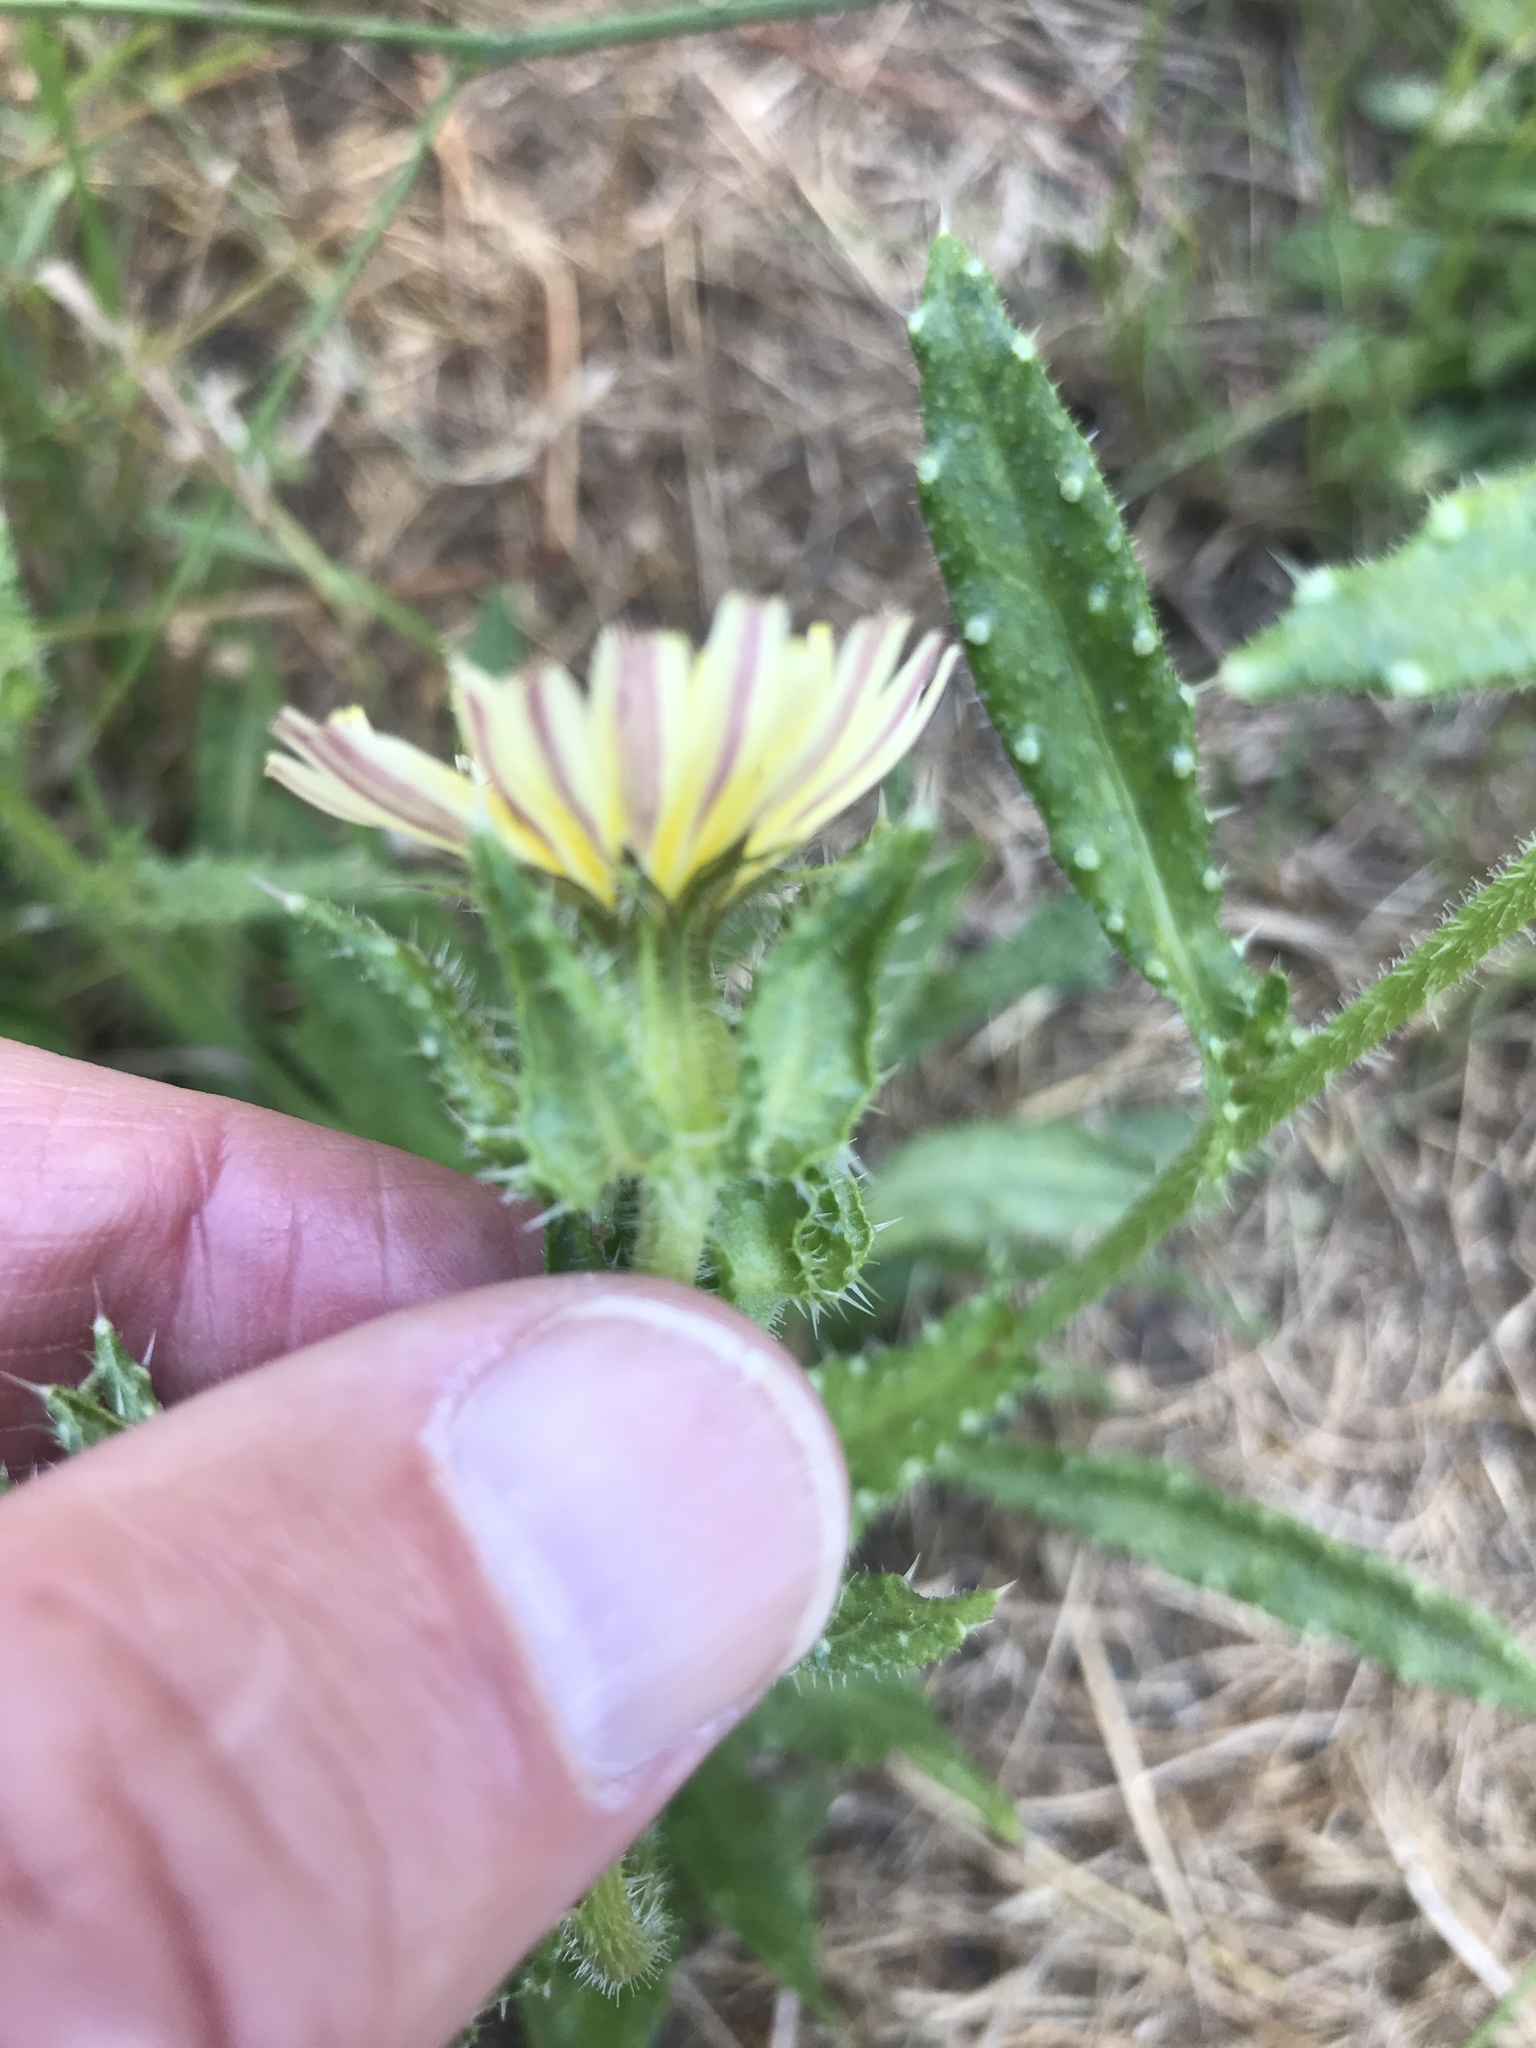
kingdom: Plantae
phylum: Tracheophyta
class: Magnoliopsida
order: Asterales
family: Asteraceae
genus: Helminthotheca
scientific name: Helminthotheca echioides
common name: Ox-tongue
